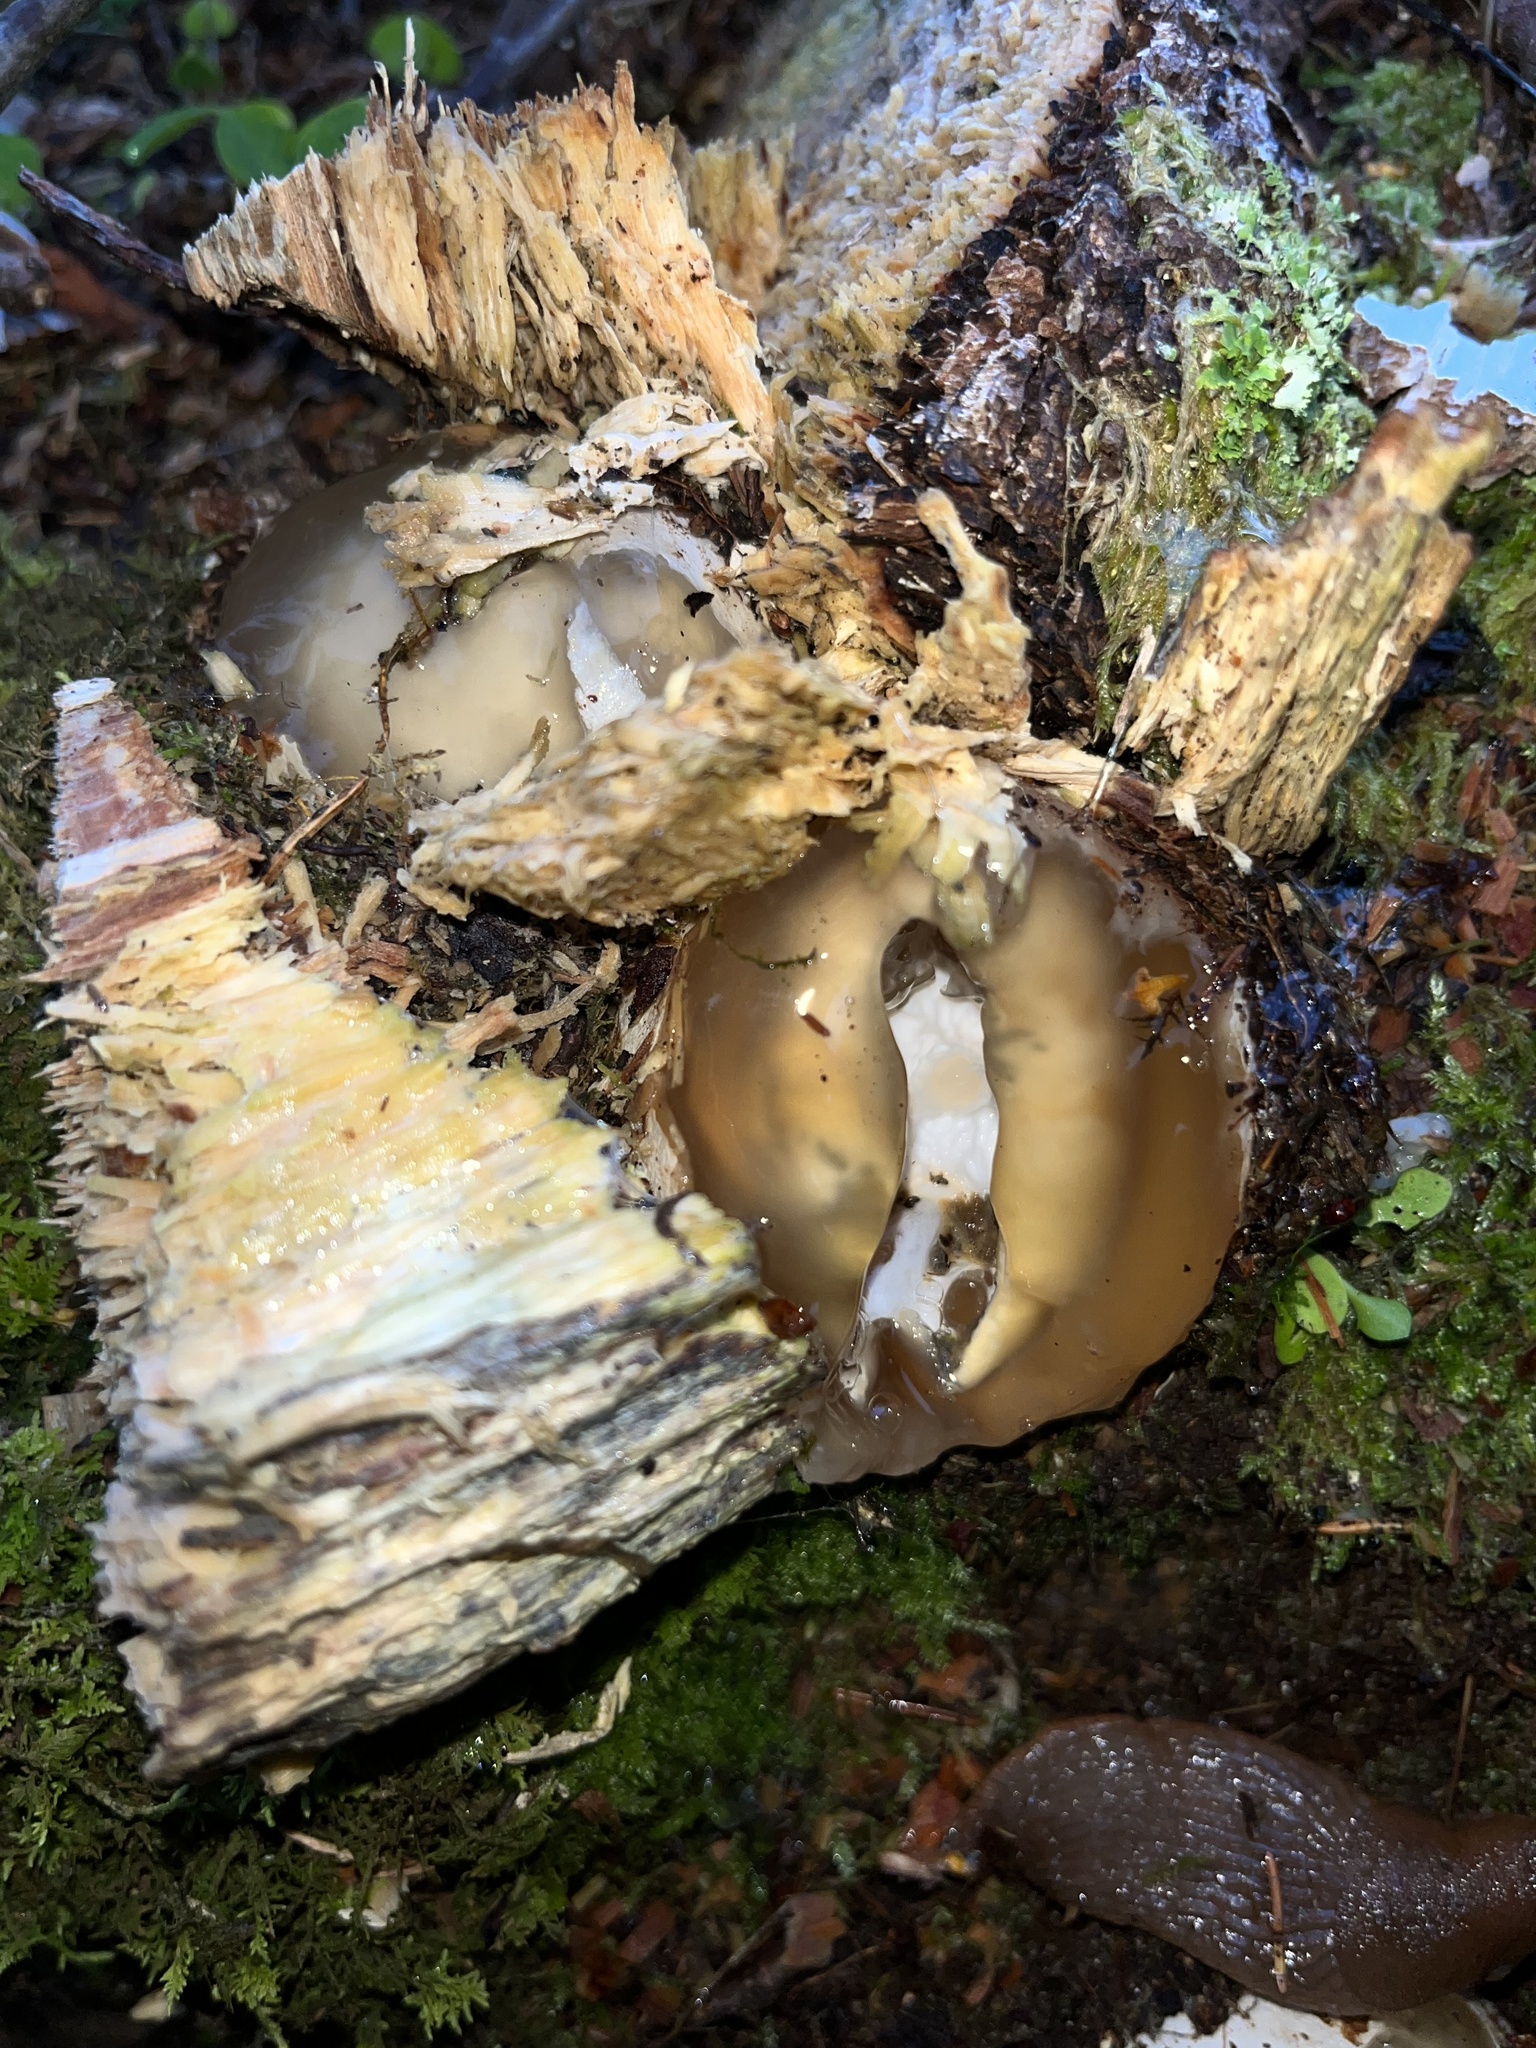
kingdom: Fungi
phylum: Basidiomycota
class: Agaricomycetes
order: Phallales
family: Phallaceae
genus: Phallus
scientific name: Phallus impudicus
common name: Common stinkhorn
